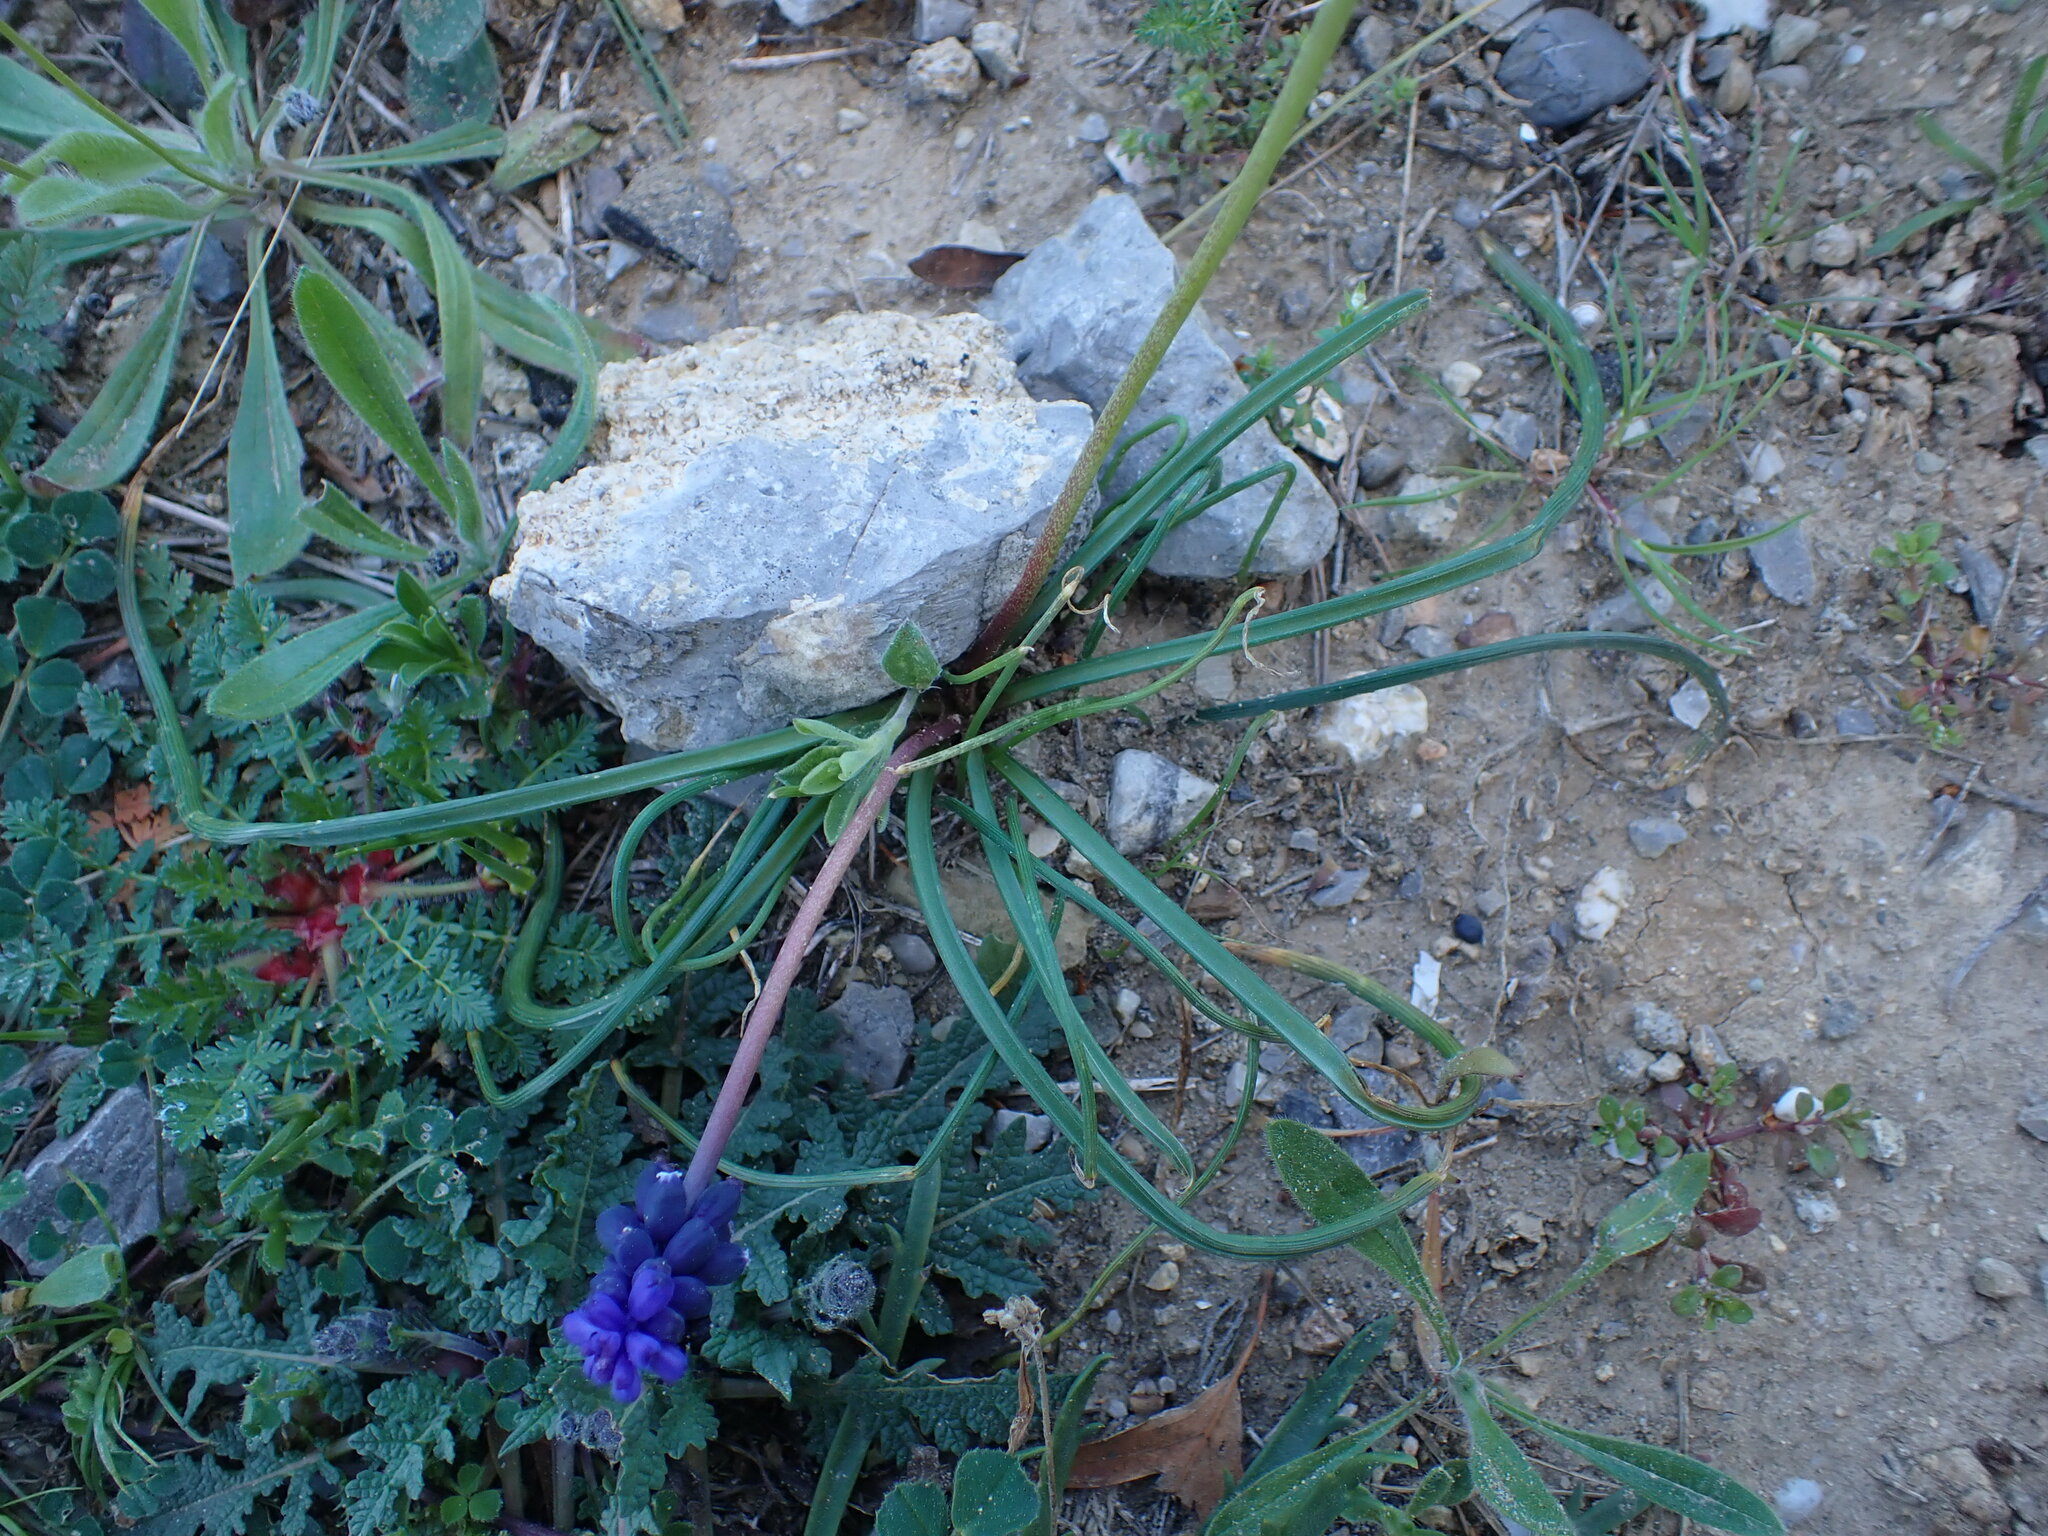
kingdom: Plantae
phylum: Tracheophyta
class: Liliopsida
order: Asparagales
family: Asparagaceae
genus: Muscari
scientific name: Muscari neglectum
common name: Grape-hyacinth
